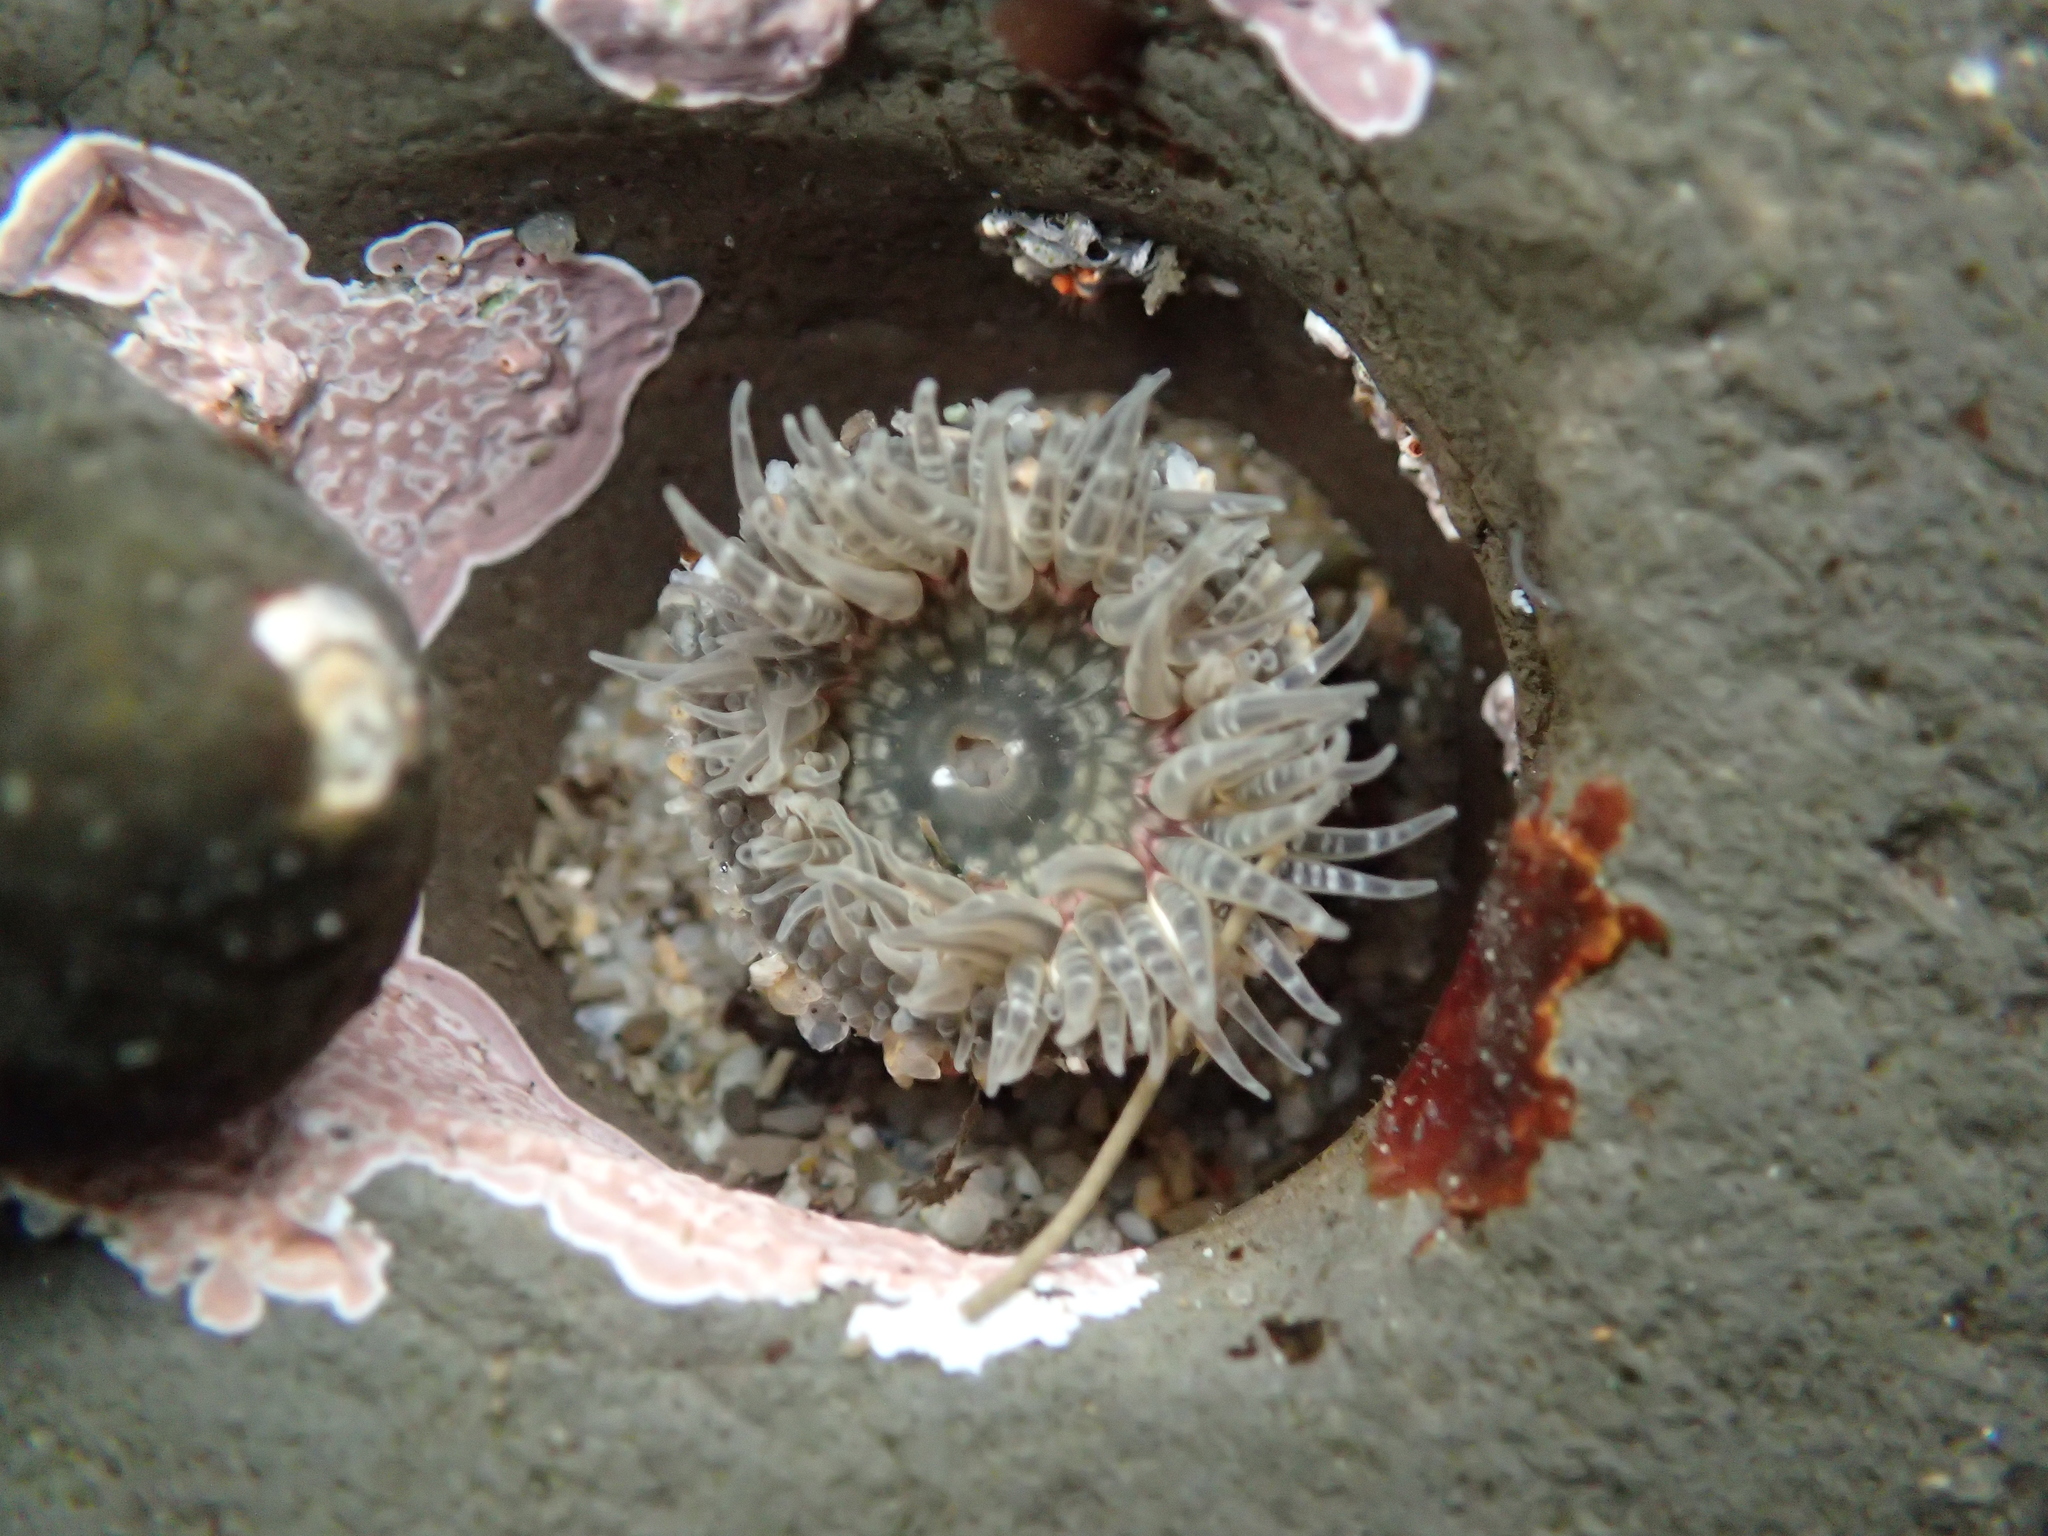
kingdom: Animalia
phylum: Cnidaria
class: Anthozoa
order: Actiniaria
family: Actiniidae
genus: Anthopleura
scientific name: Anthopleura artemisia
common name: Buried sea anemone
